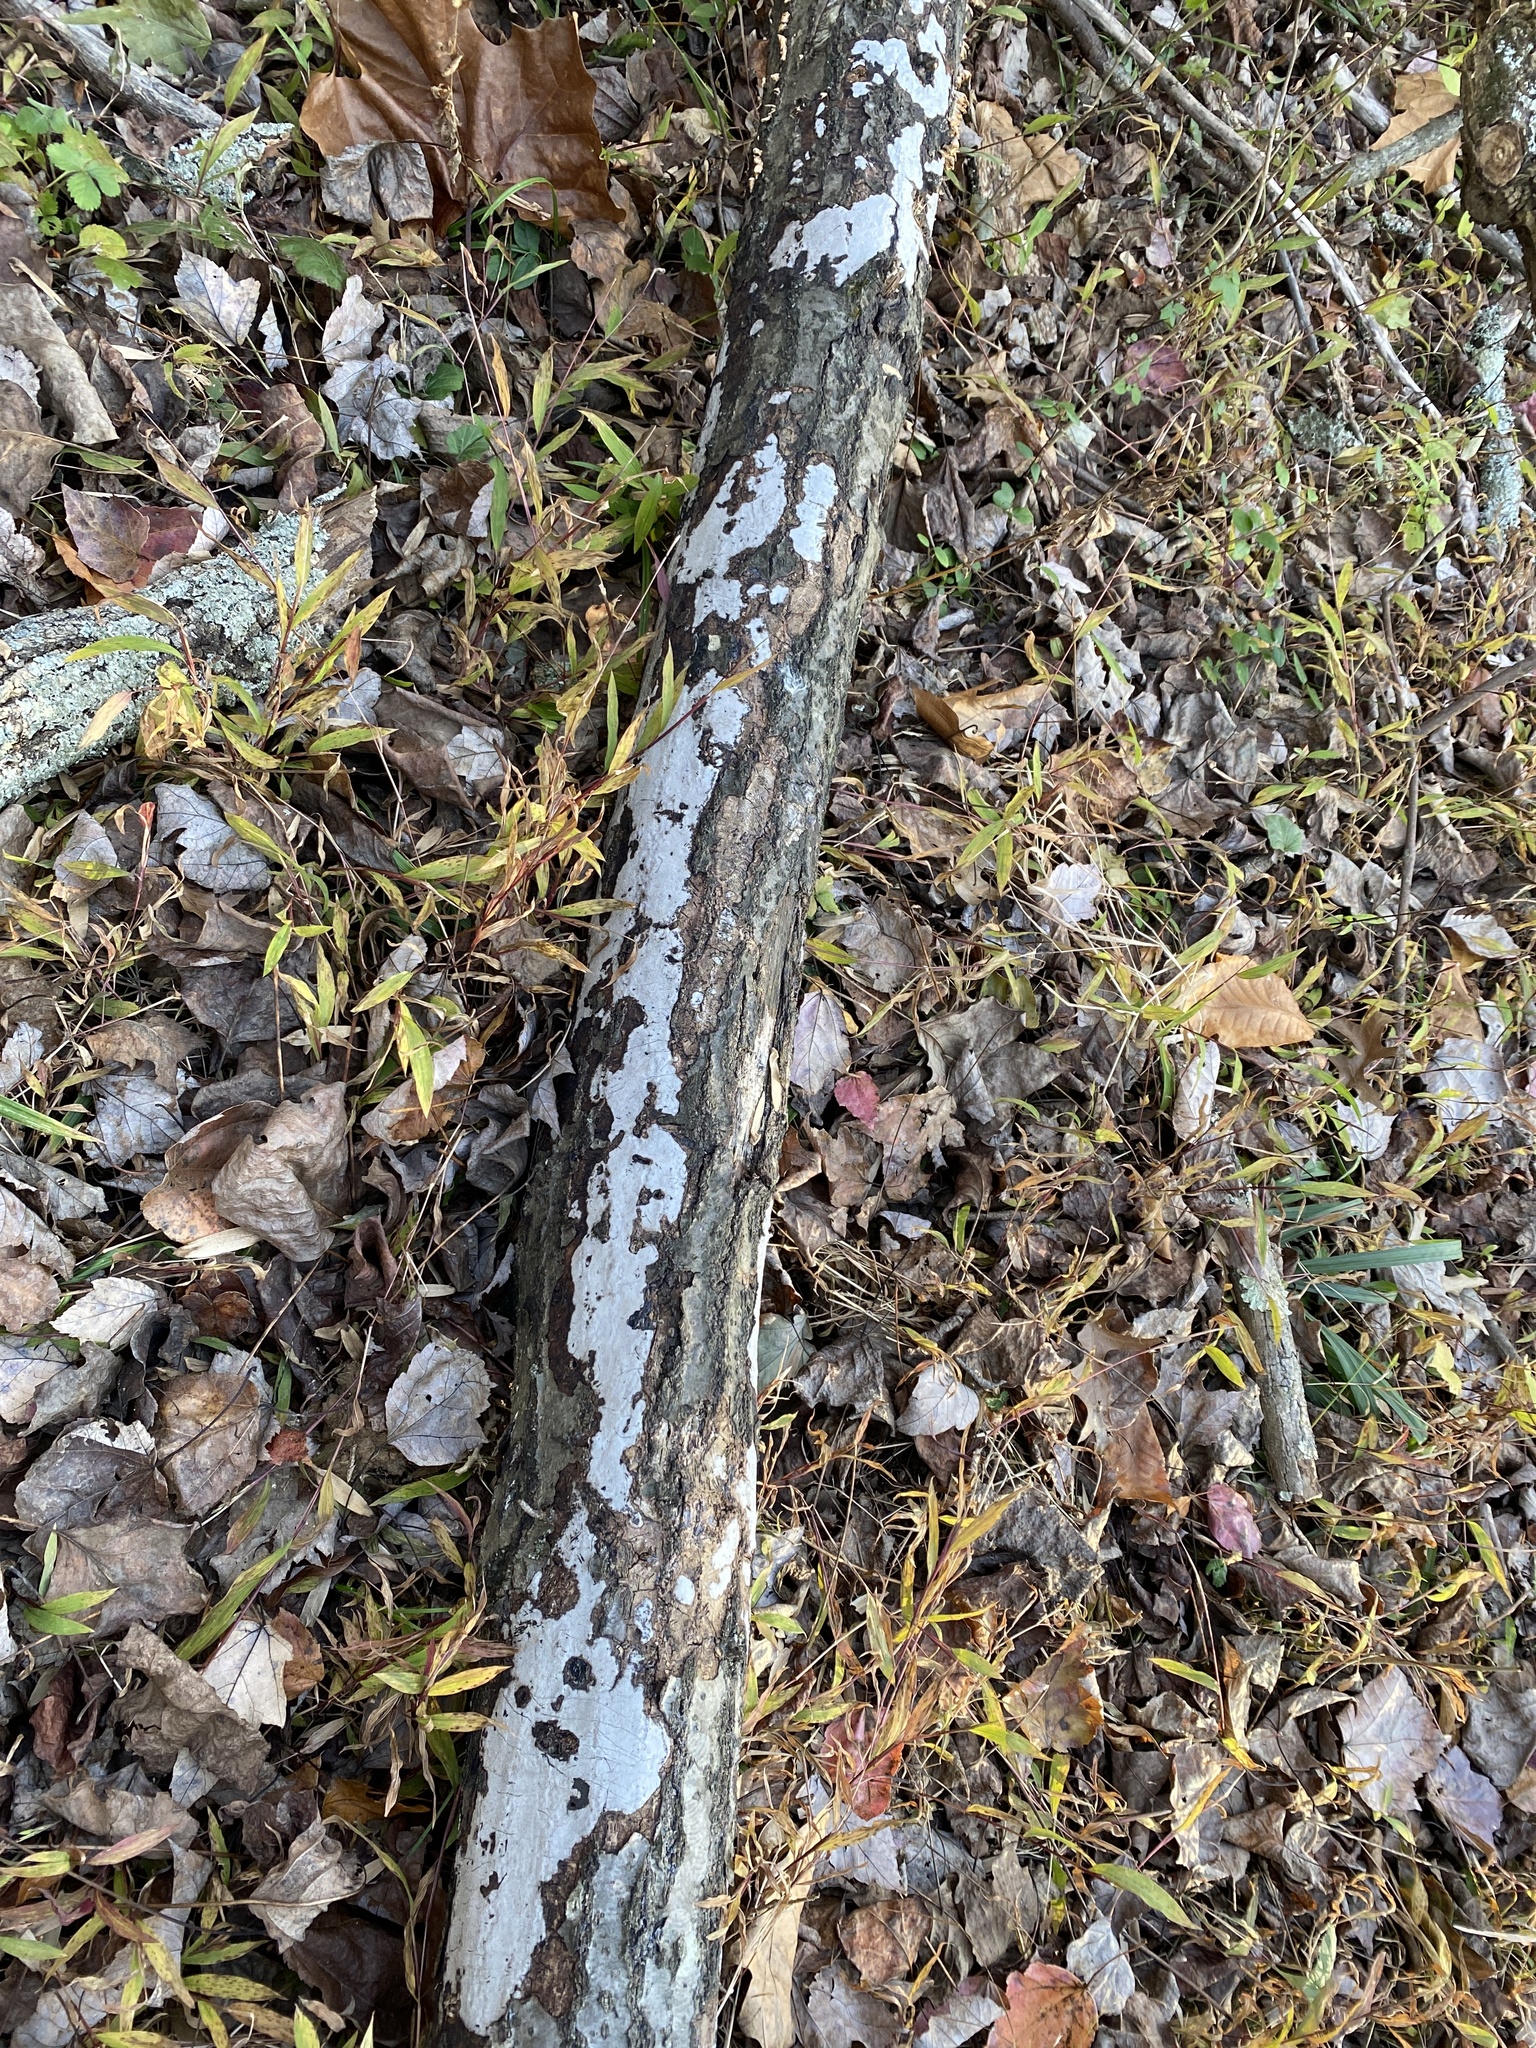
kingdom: Fungi
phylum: Ascomycota
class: Sordariomycetes
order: Xylariales
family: Graphostromataceae
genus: Biscogniauxia
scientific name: Biscogniauxia atropunctata
